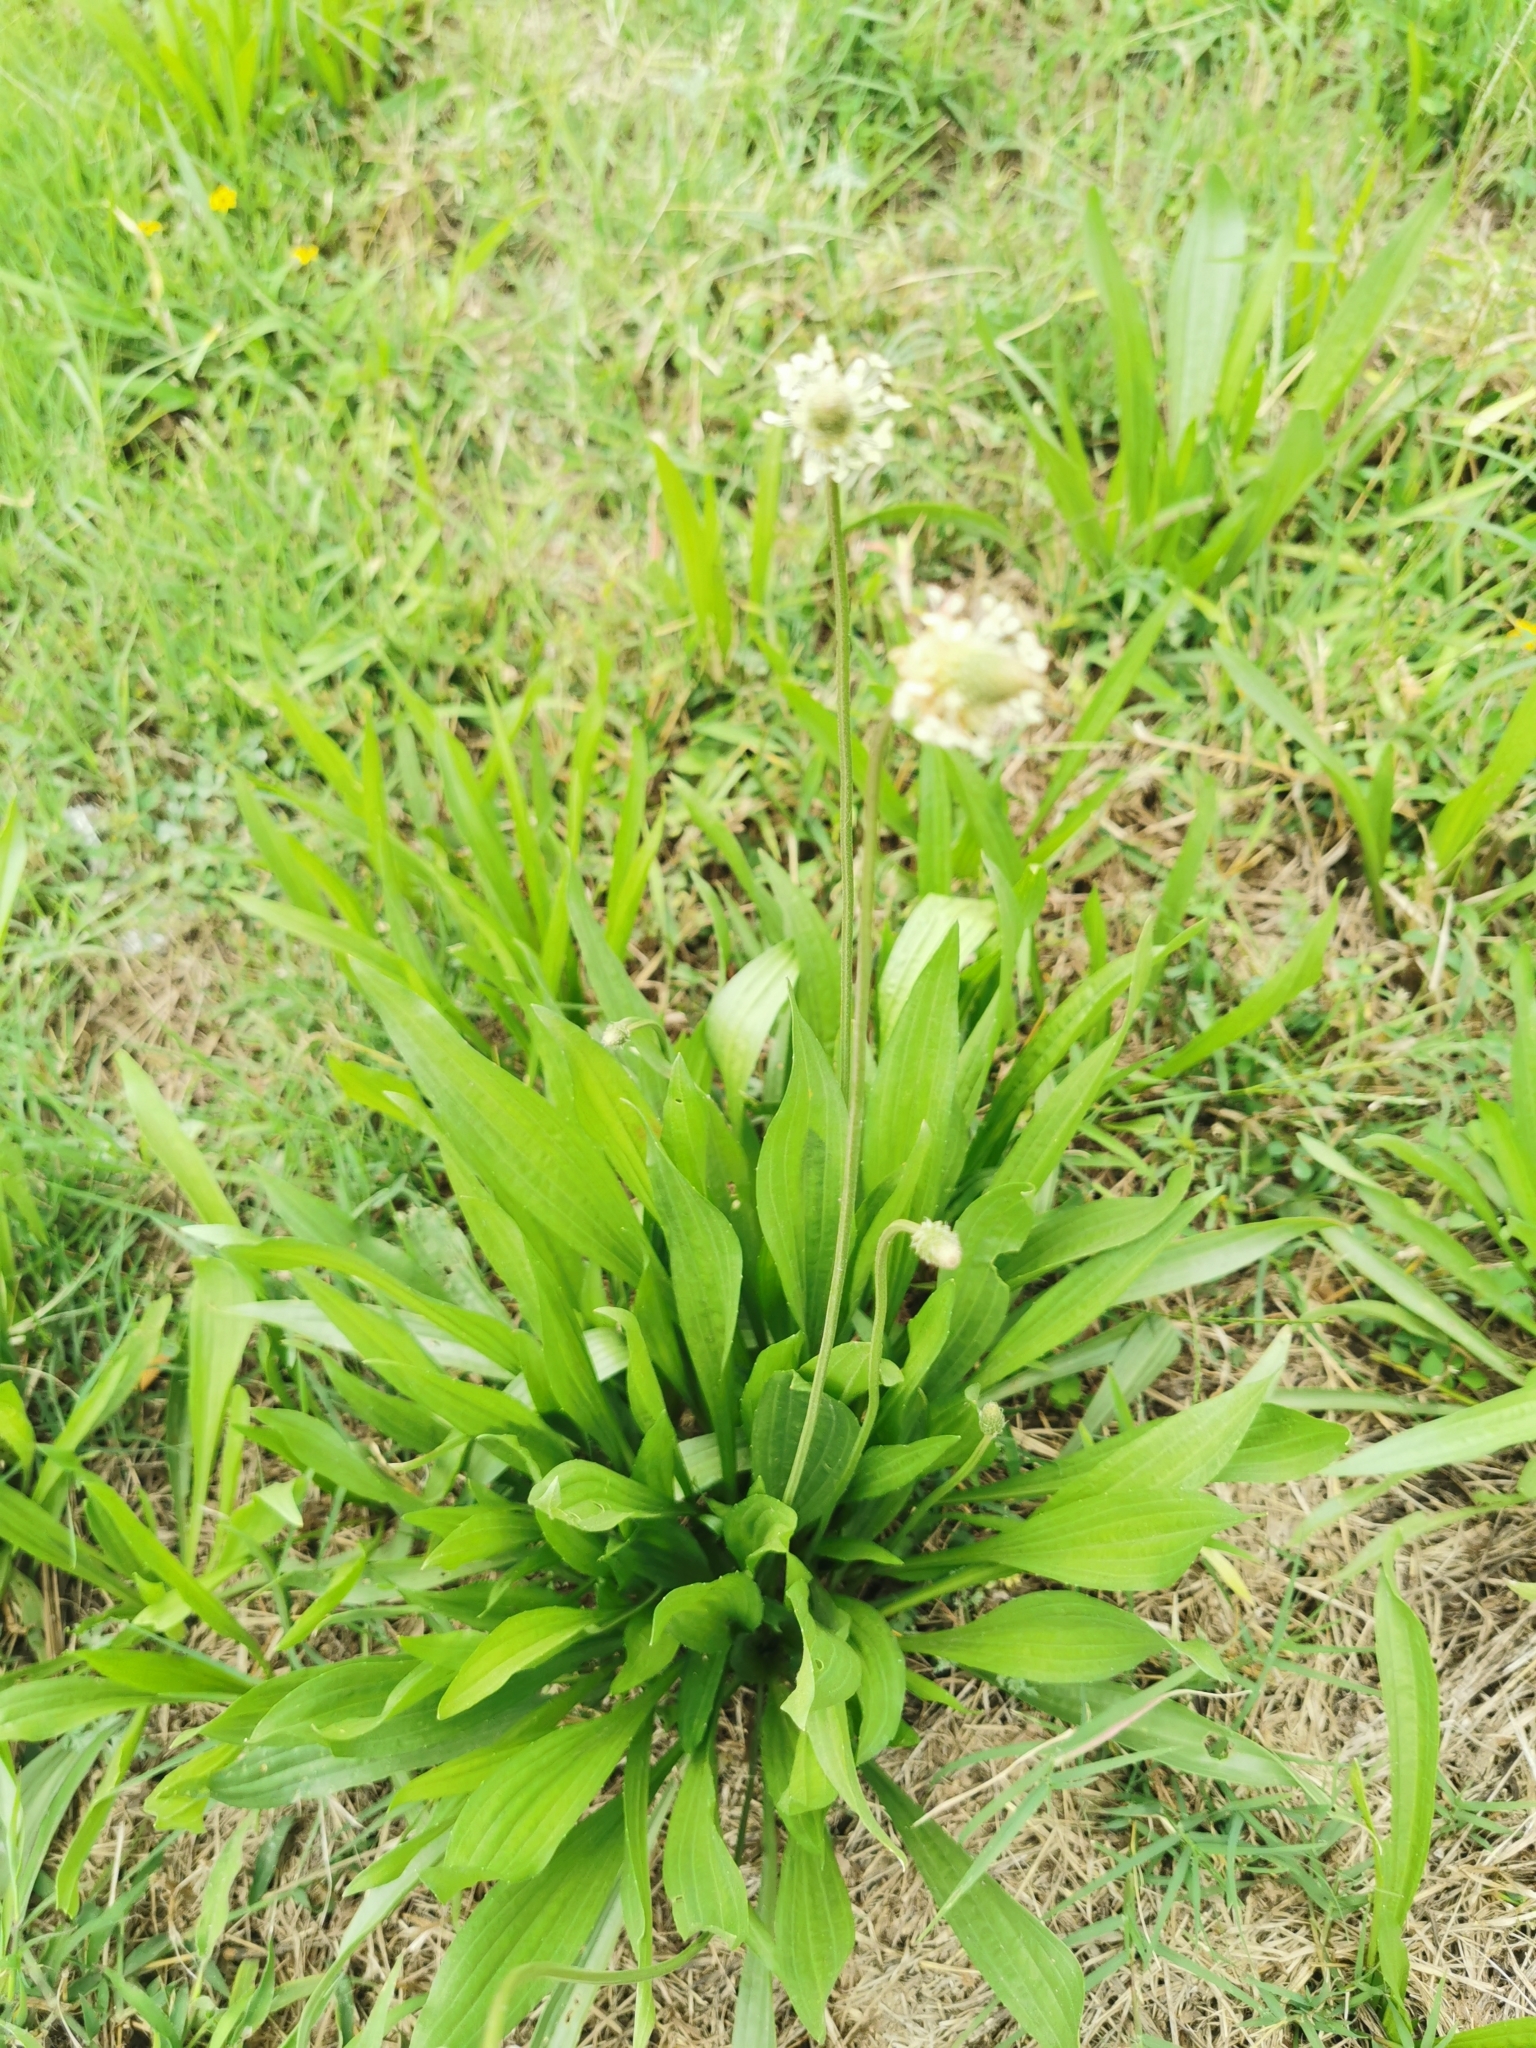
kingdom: Plantae
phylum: Tracheophyta
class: Magnoliopsida
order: Lamiales
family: Plantaginaceae
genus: Plantago
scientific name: Plantago lanceolata
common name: Ribwort plantain
